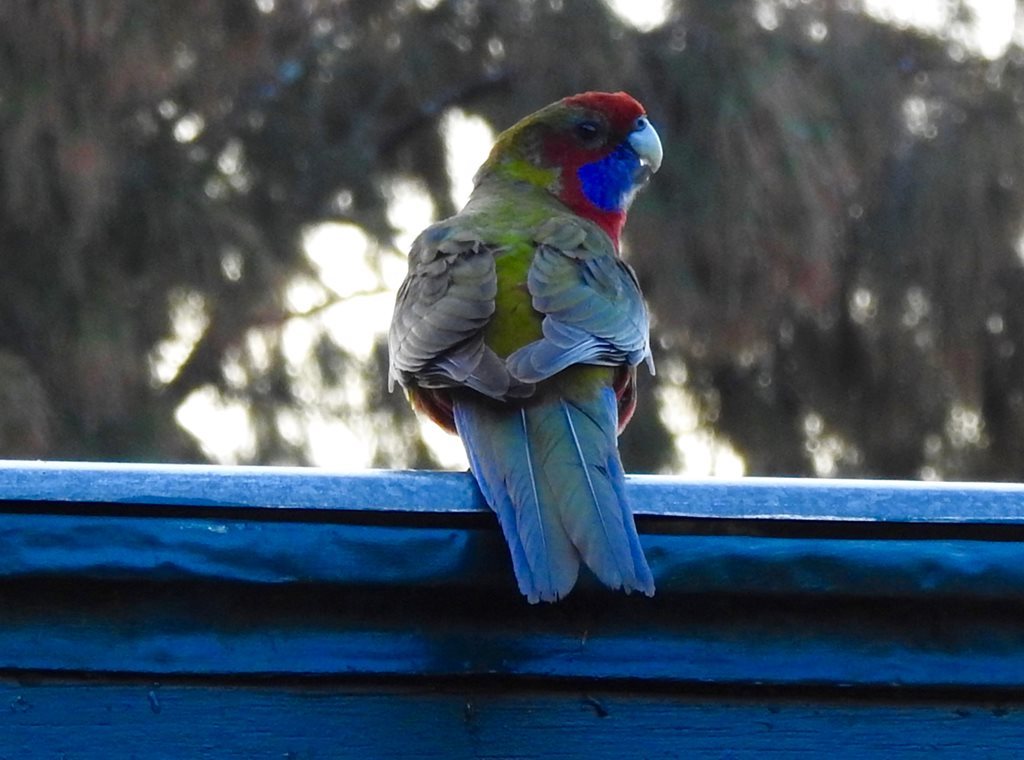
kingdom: Animalia
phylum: Chordata
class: Aves
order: Psittaciformes
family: Psittacidae
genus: Platycercus
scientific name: Platycercus elegans
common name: Crimson rosella
